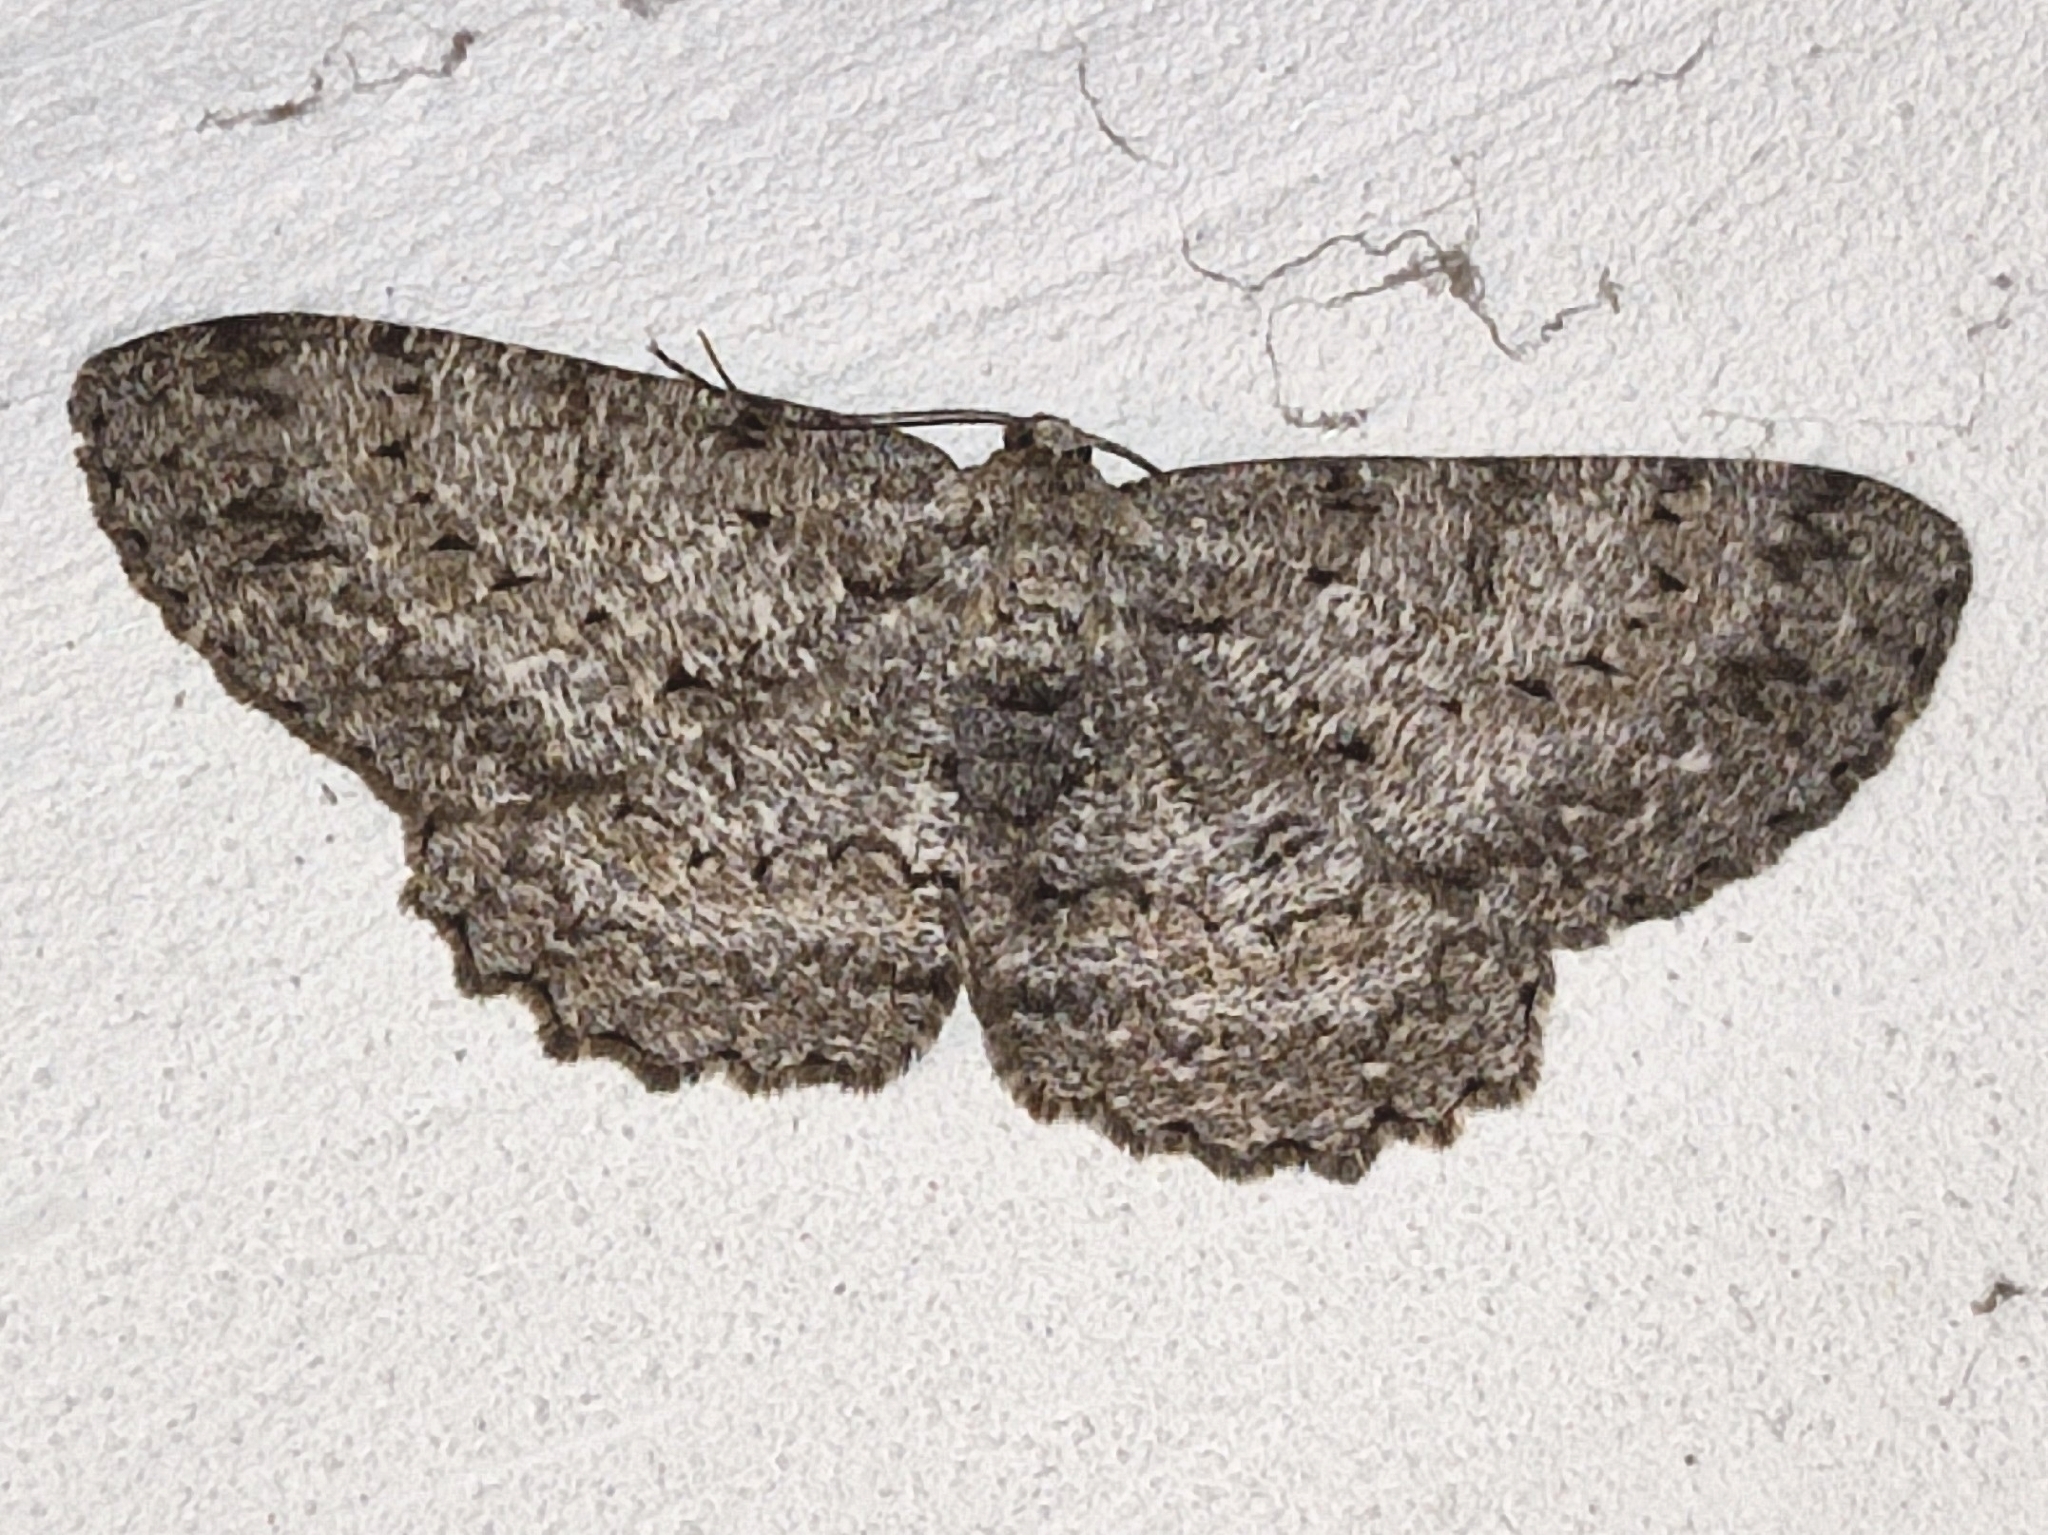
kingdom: Animalia
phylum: Arthropoda
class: Insecta
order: Lepidoptera
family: Geometridae
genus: Hypomecis
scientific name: Hypomecis punctinalis
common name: Pale oak beauty
